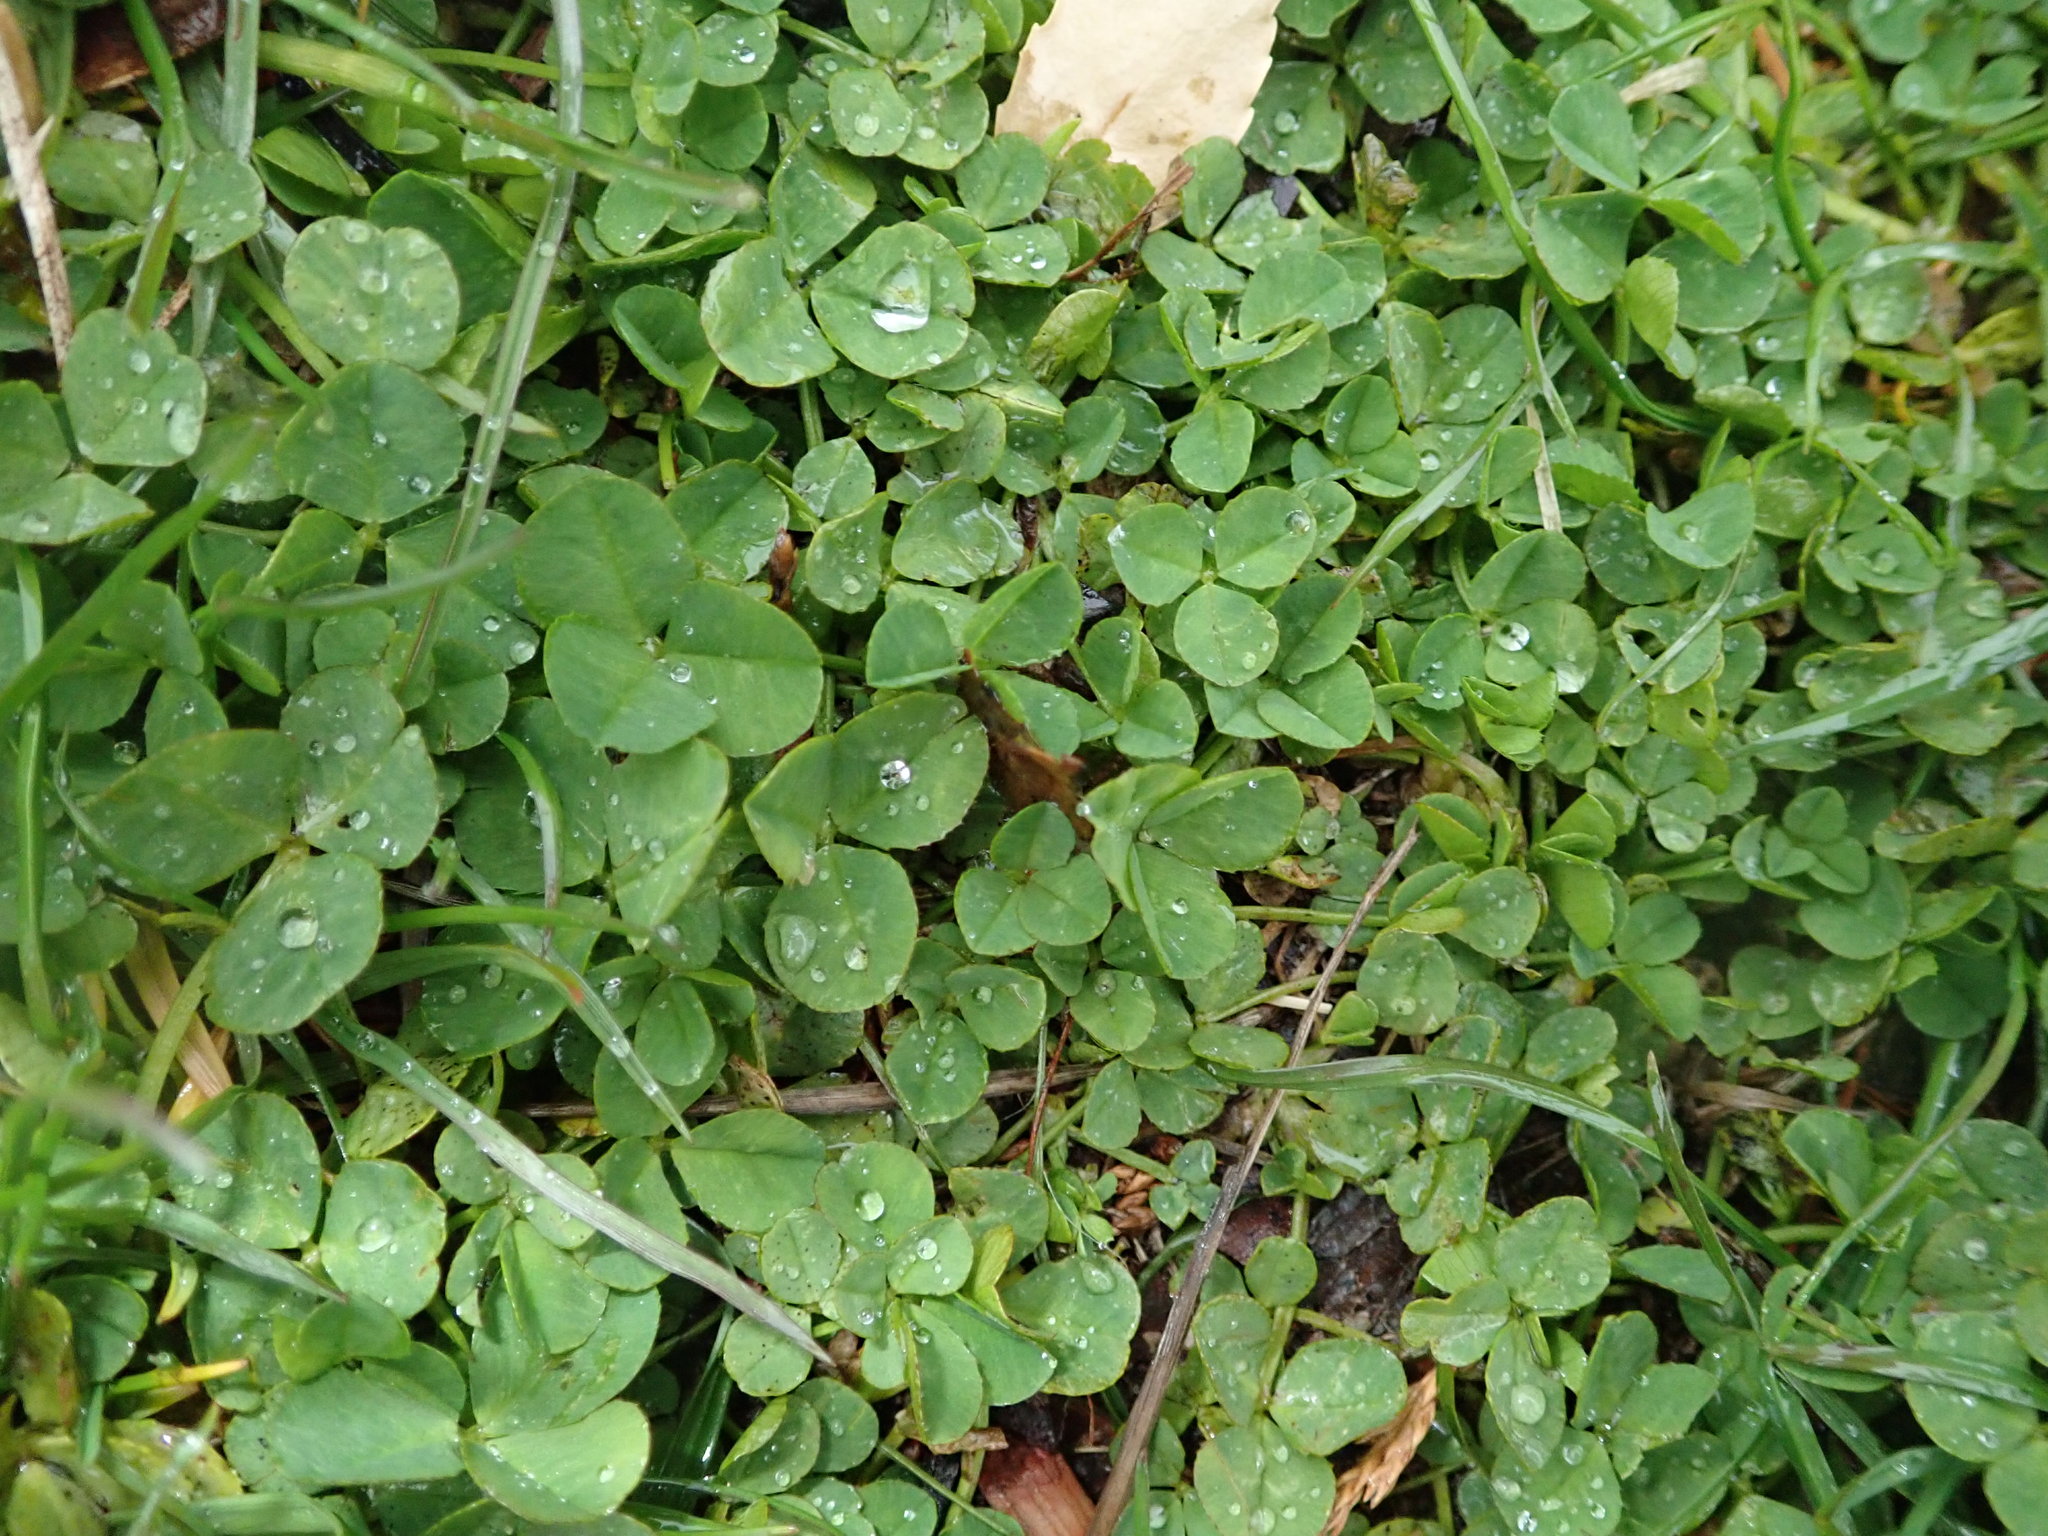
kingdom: Plantae
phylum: Tracheophyta
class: Magnoliopsida
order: Fabales
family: Fabaceae
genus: Trifolium
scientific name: Trifolium repens
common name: White clover
